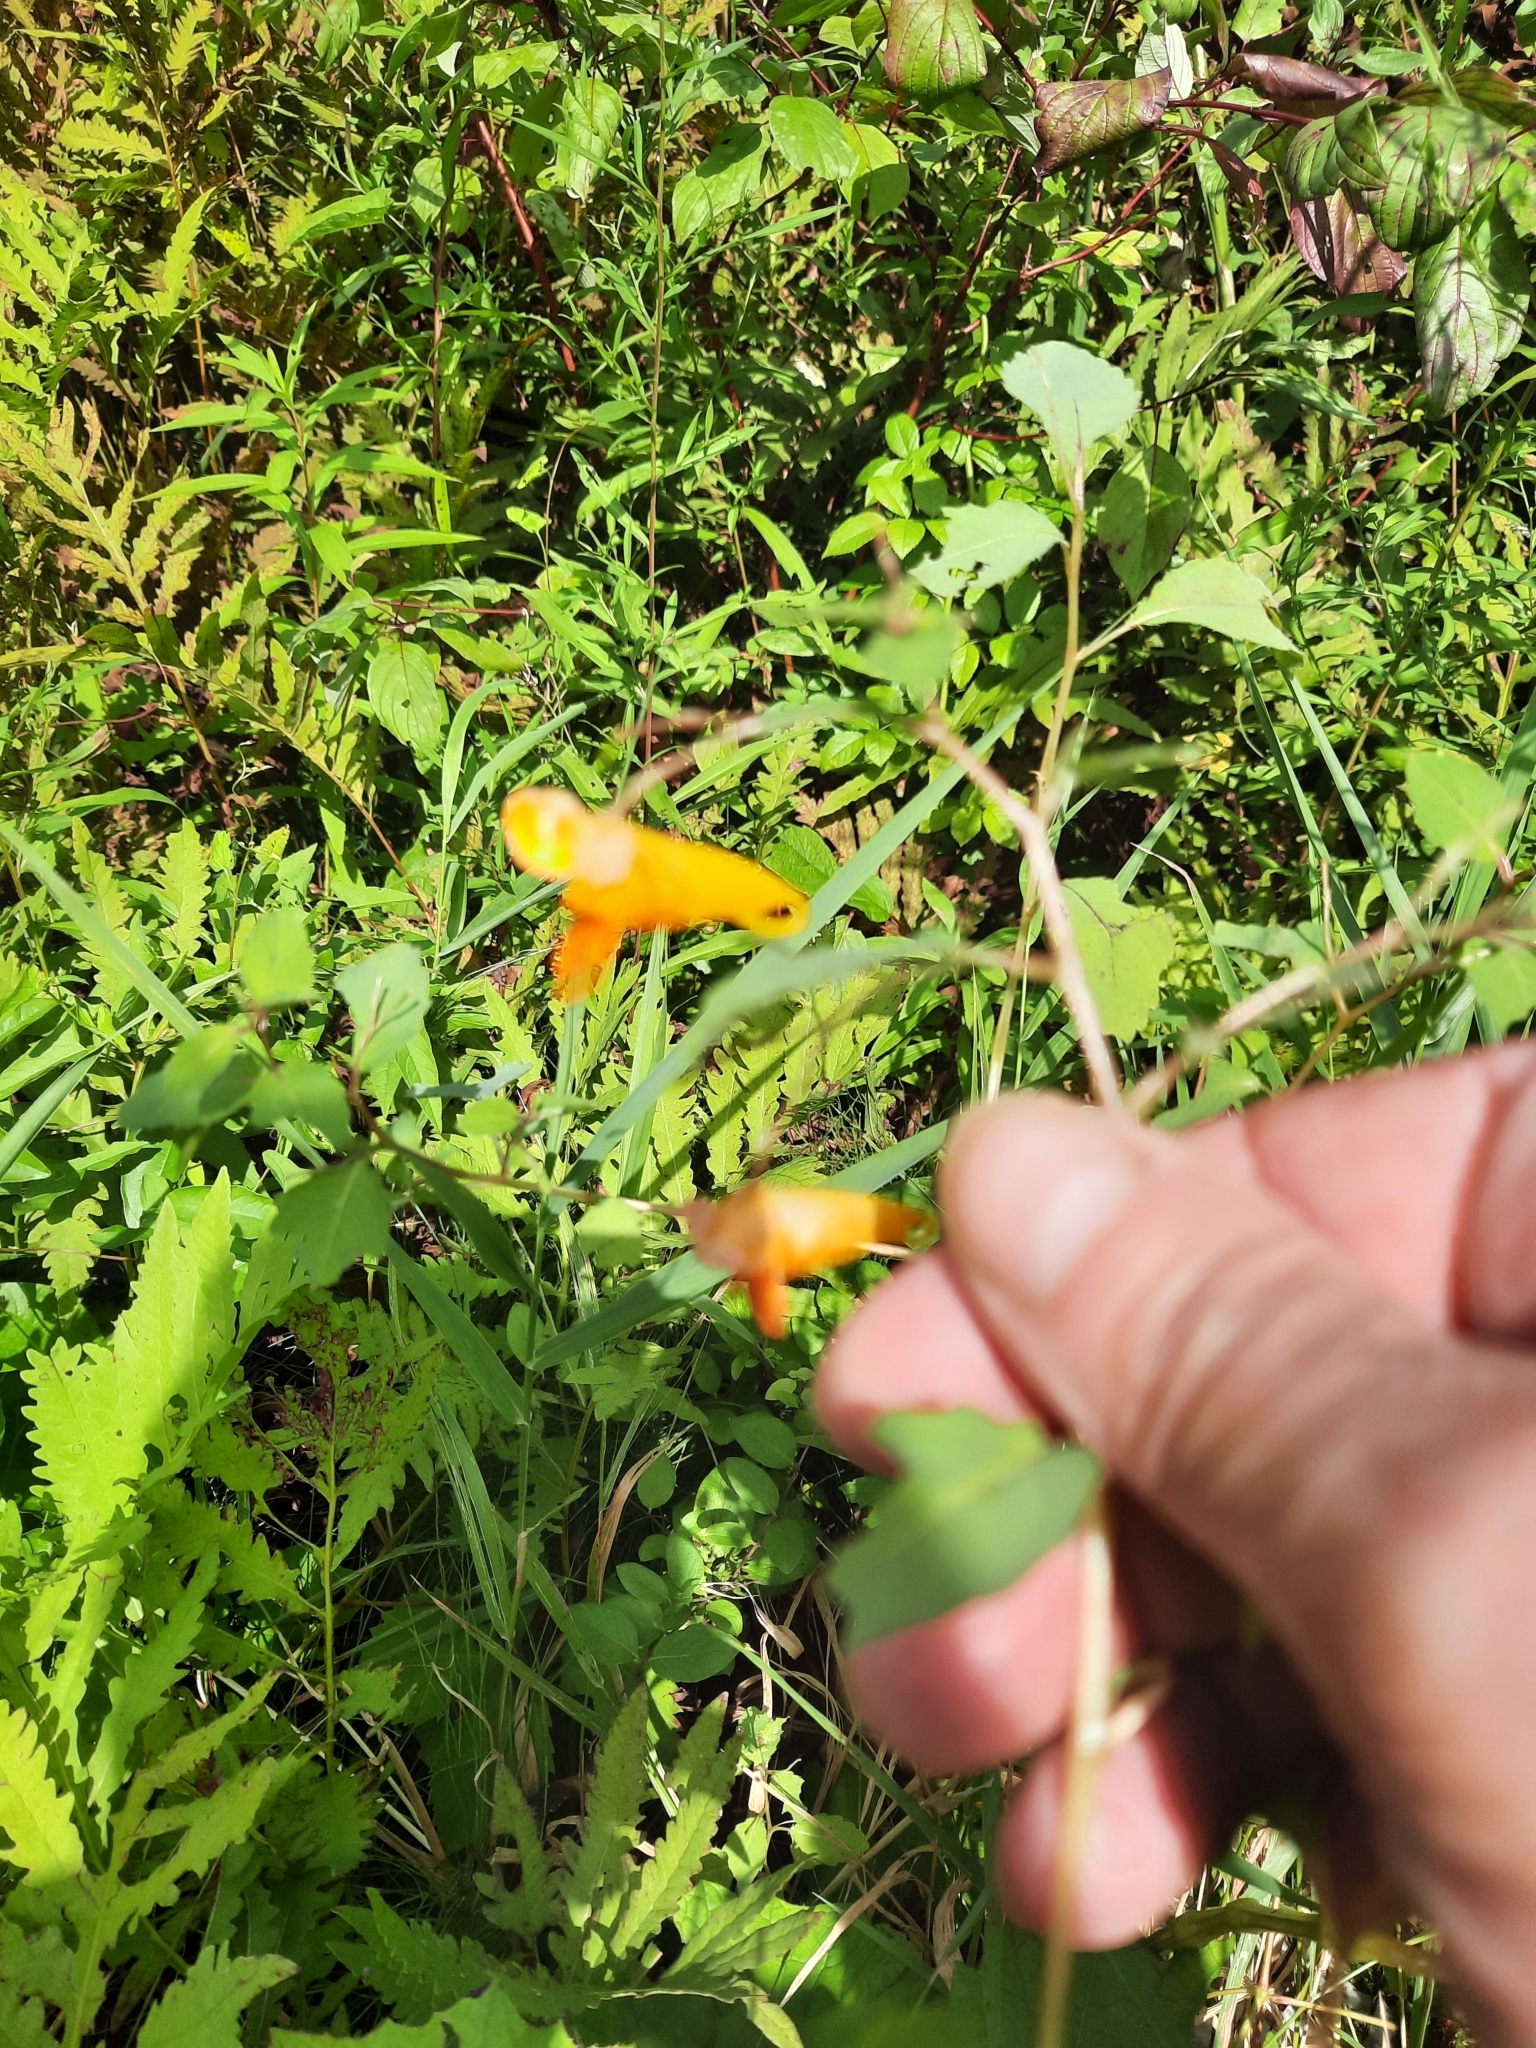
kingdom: Plantae
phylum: Tracheophyta
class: Magnoliopsida
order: Ericales
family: Balsaminaceae
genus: Impatiens
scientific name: Impatiens capensis
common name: Orange balsam
